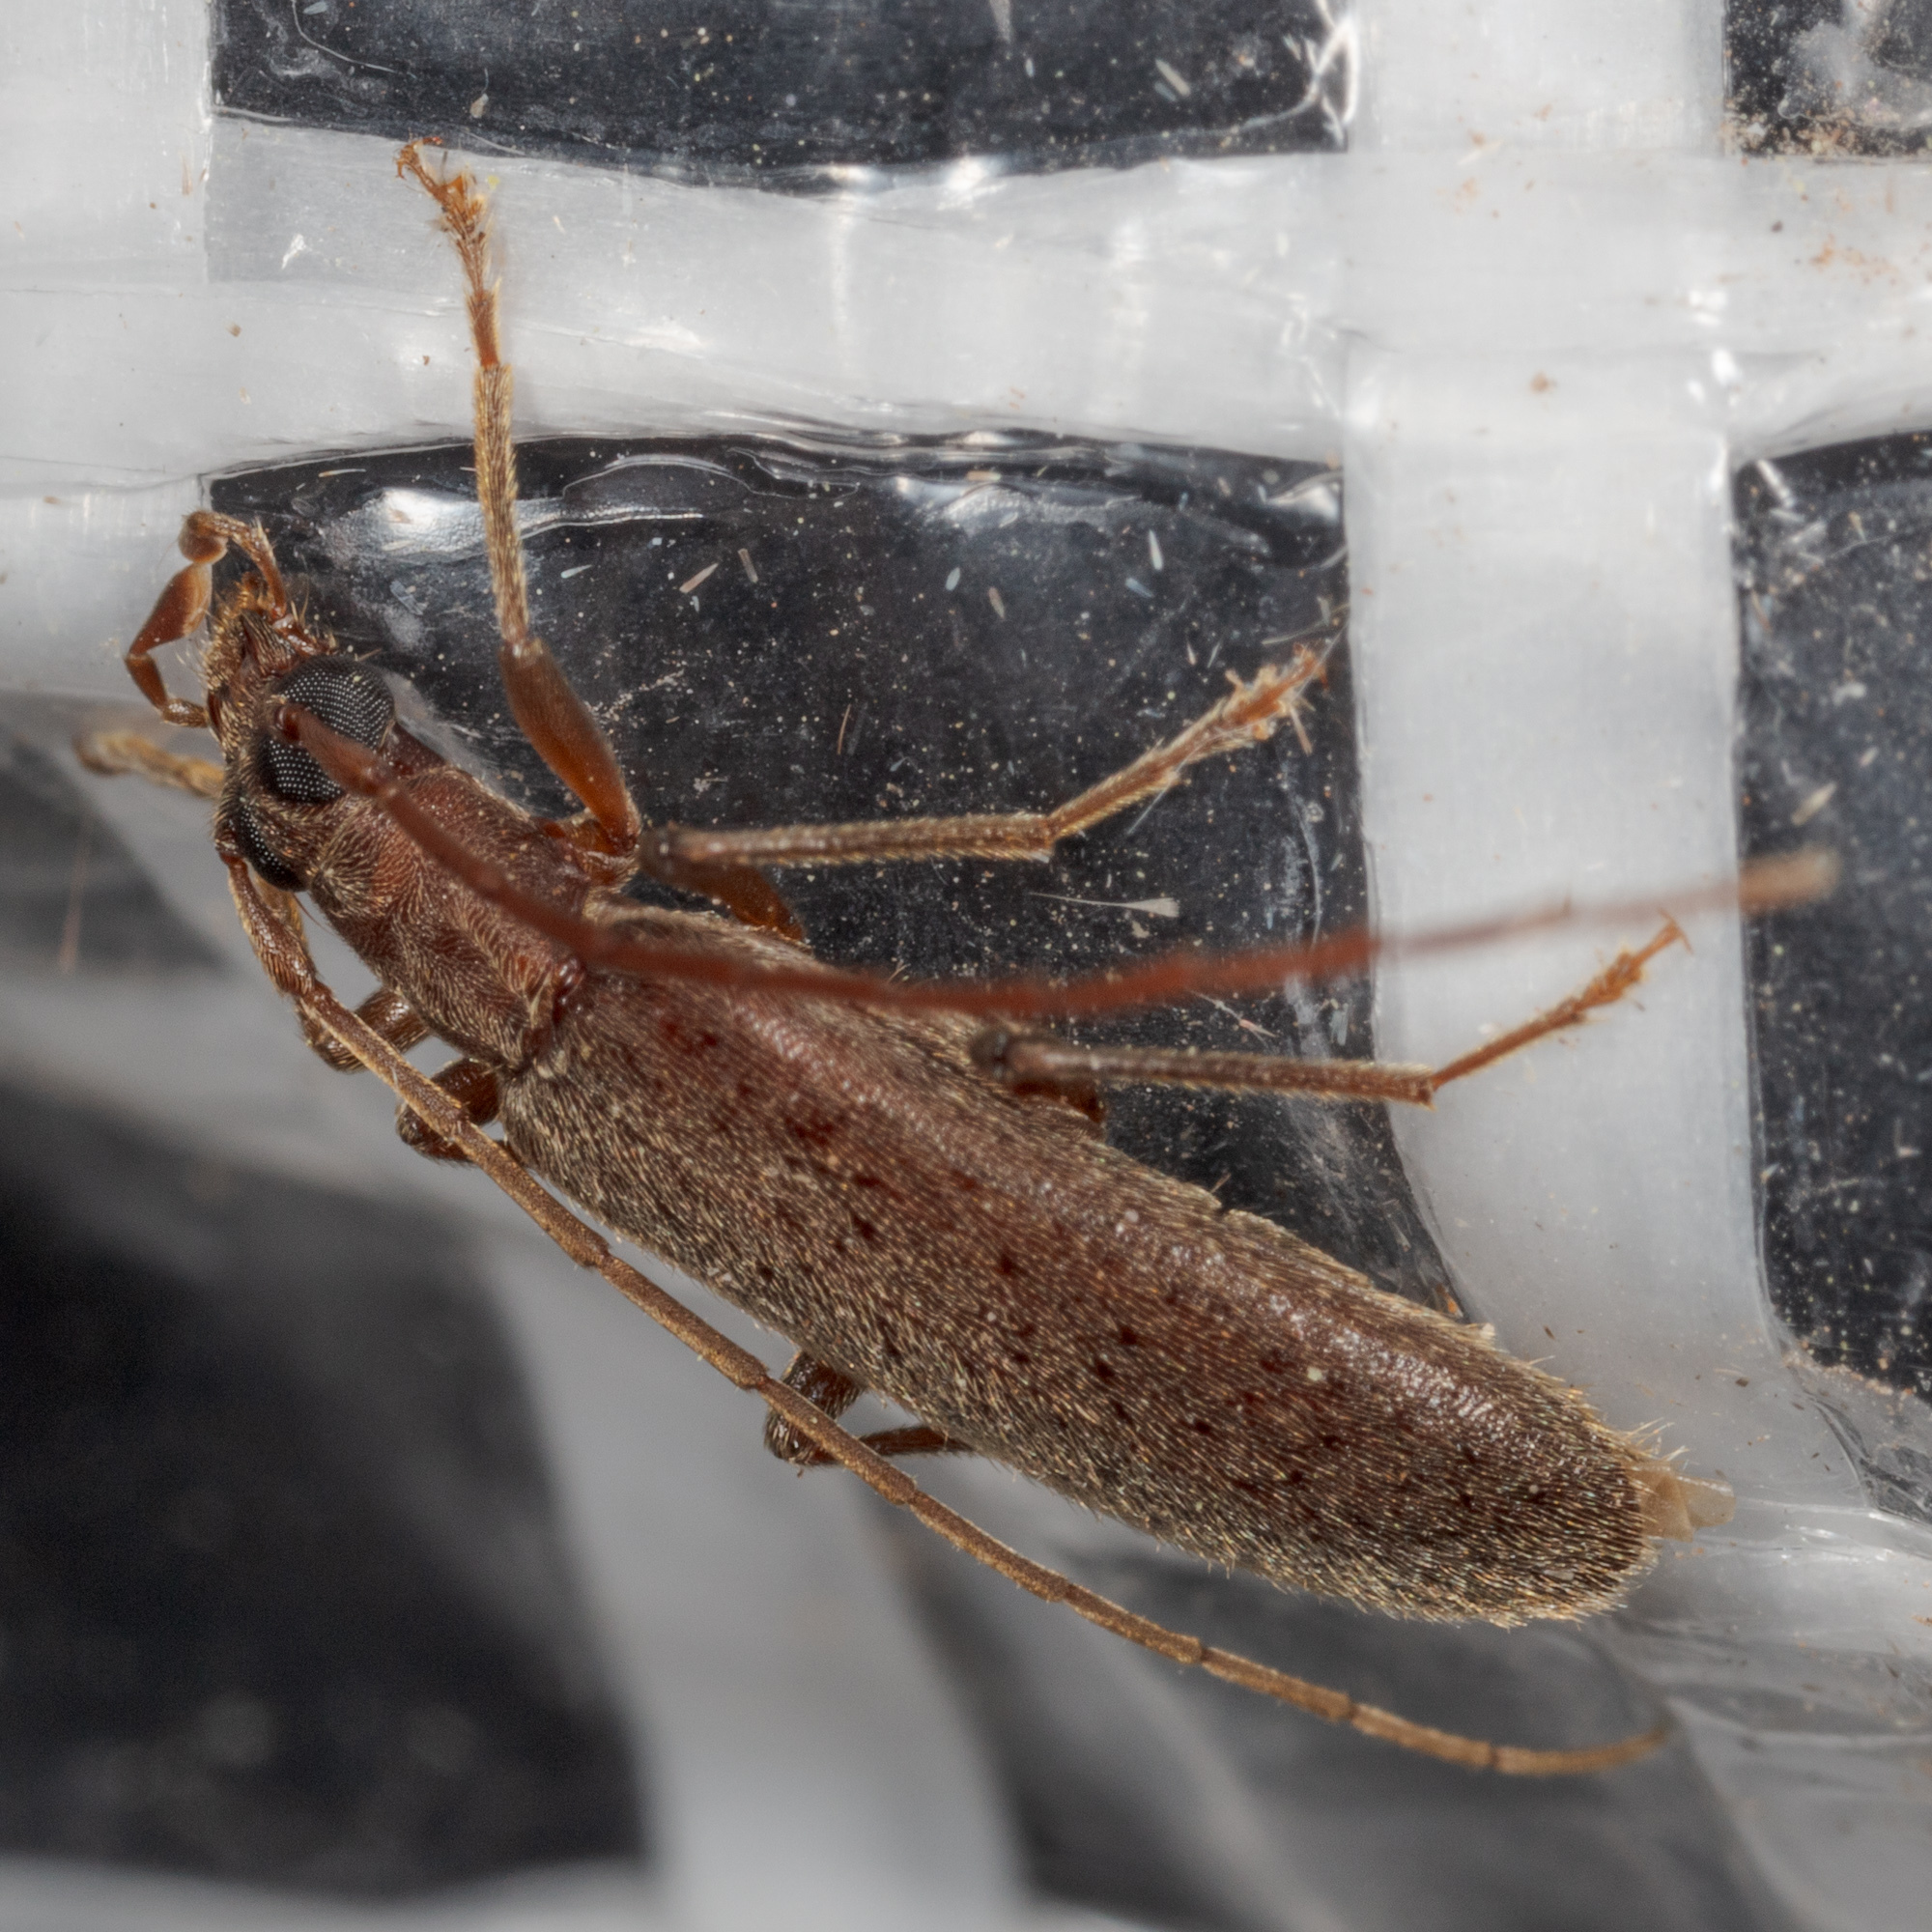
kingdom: Animalia
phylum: Arthropoda
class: Insecta
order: Coleoptera
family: Oedemeridae
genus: Sparedrus
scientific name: Sparedrus aspersus
